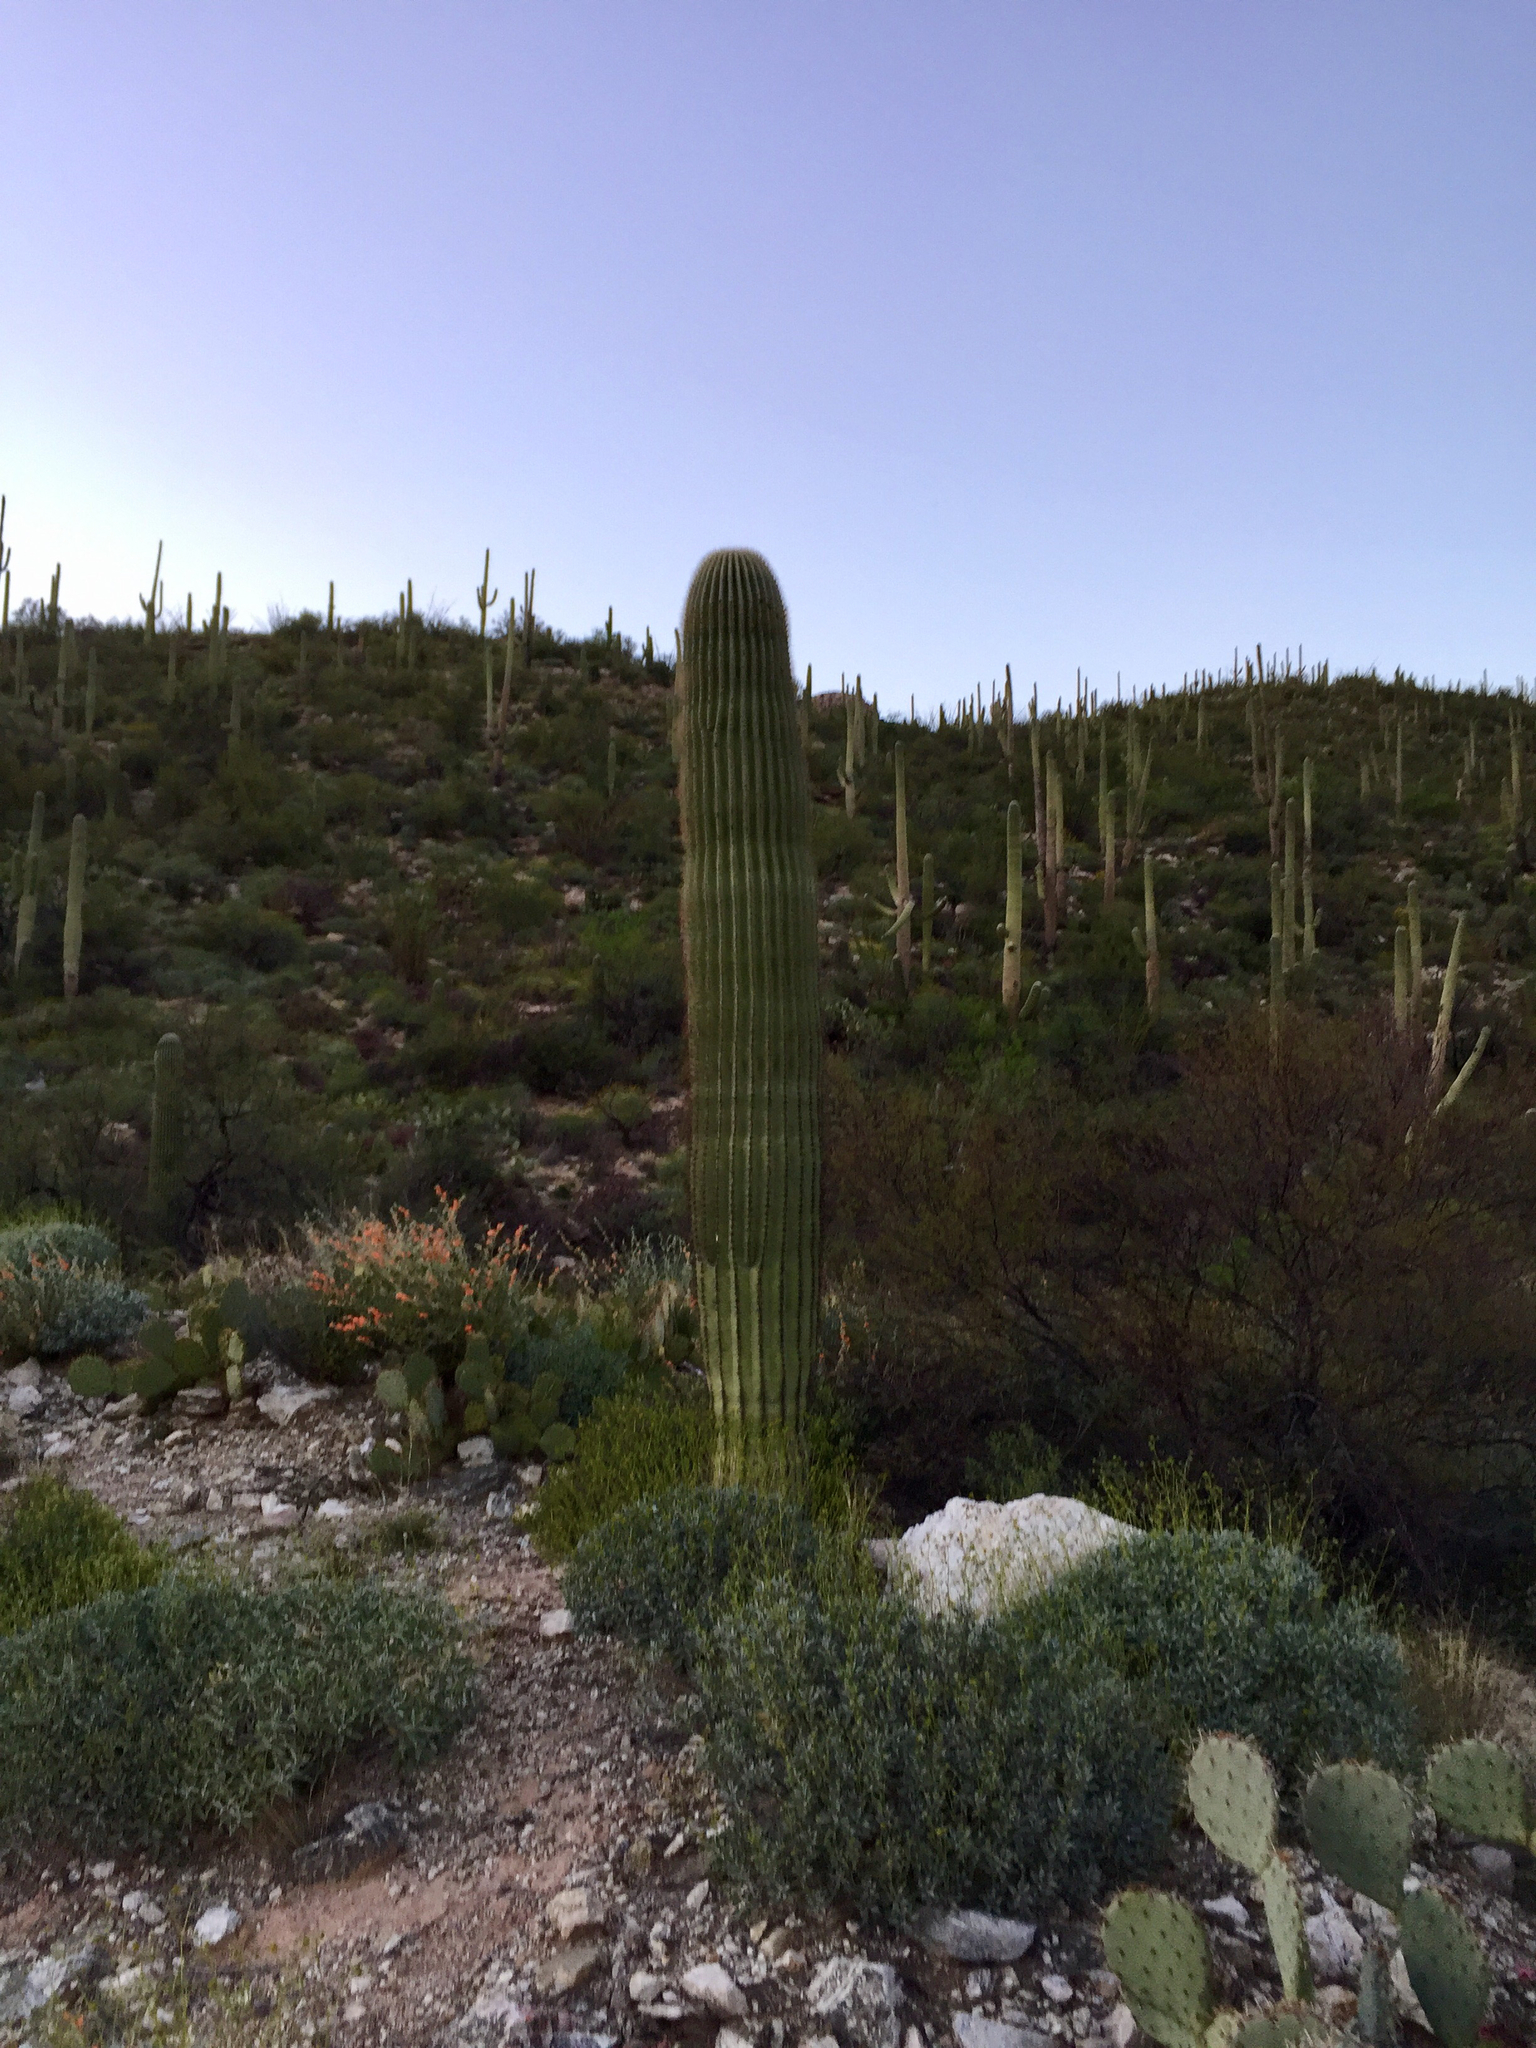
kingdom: Plantae
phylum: Tracheophyta
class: Magnoliopsida
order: Caryophyllales
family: Cactaceae
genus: Carnegiea
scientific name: Carnegiea gigantea
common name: Saguaro
